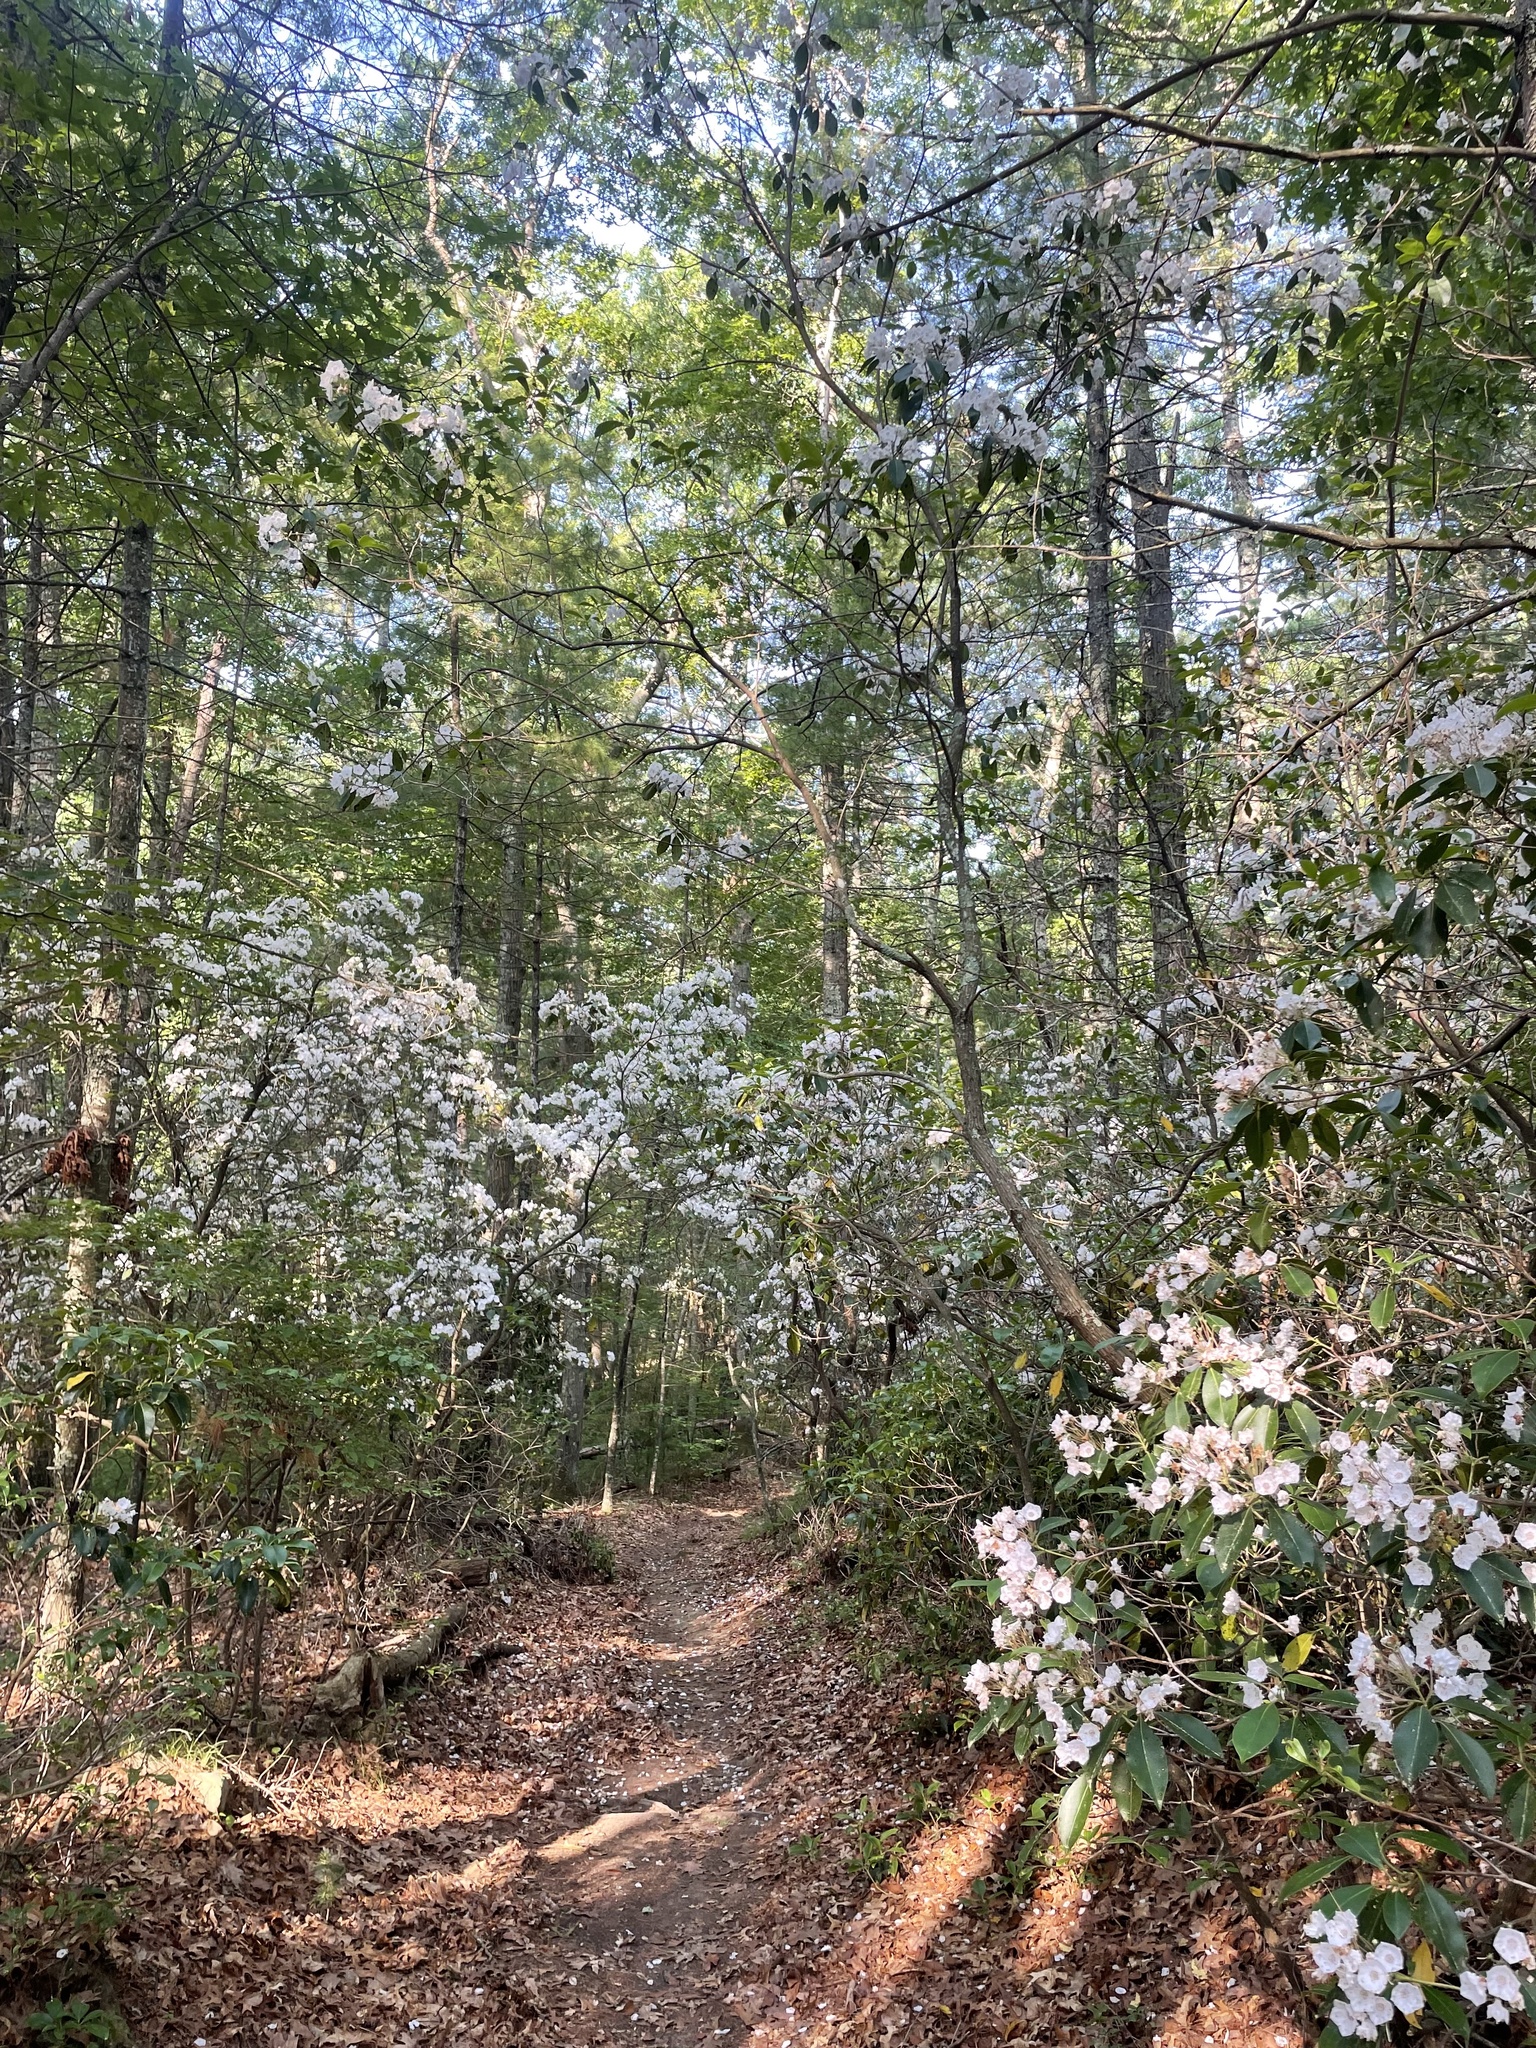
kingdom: Plantae
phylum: Tracheophyta
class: Magnoliopsida
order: Ericales
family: Ericaceae
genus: Kalmia
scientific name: Kalmia latifolia
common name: Mountain-laurel
